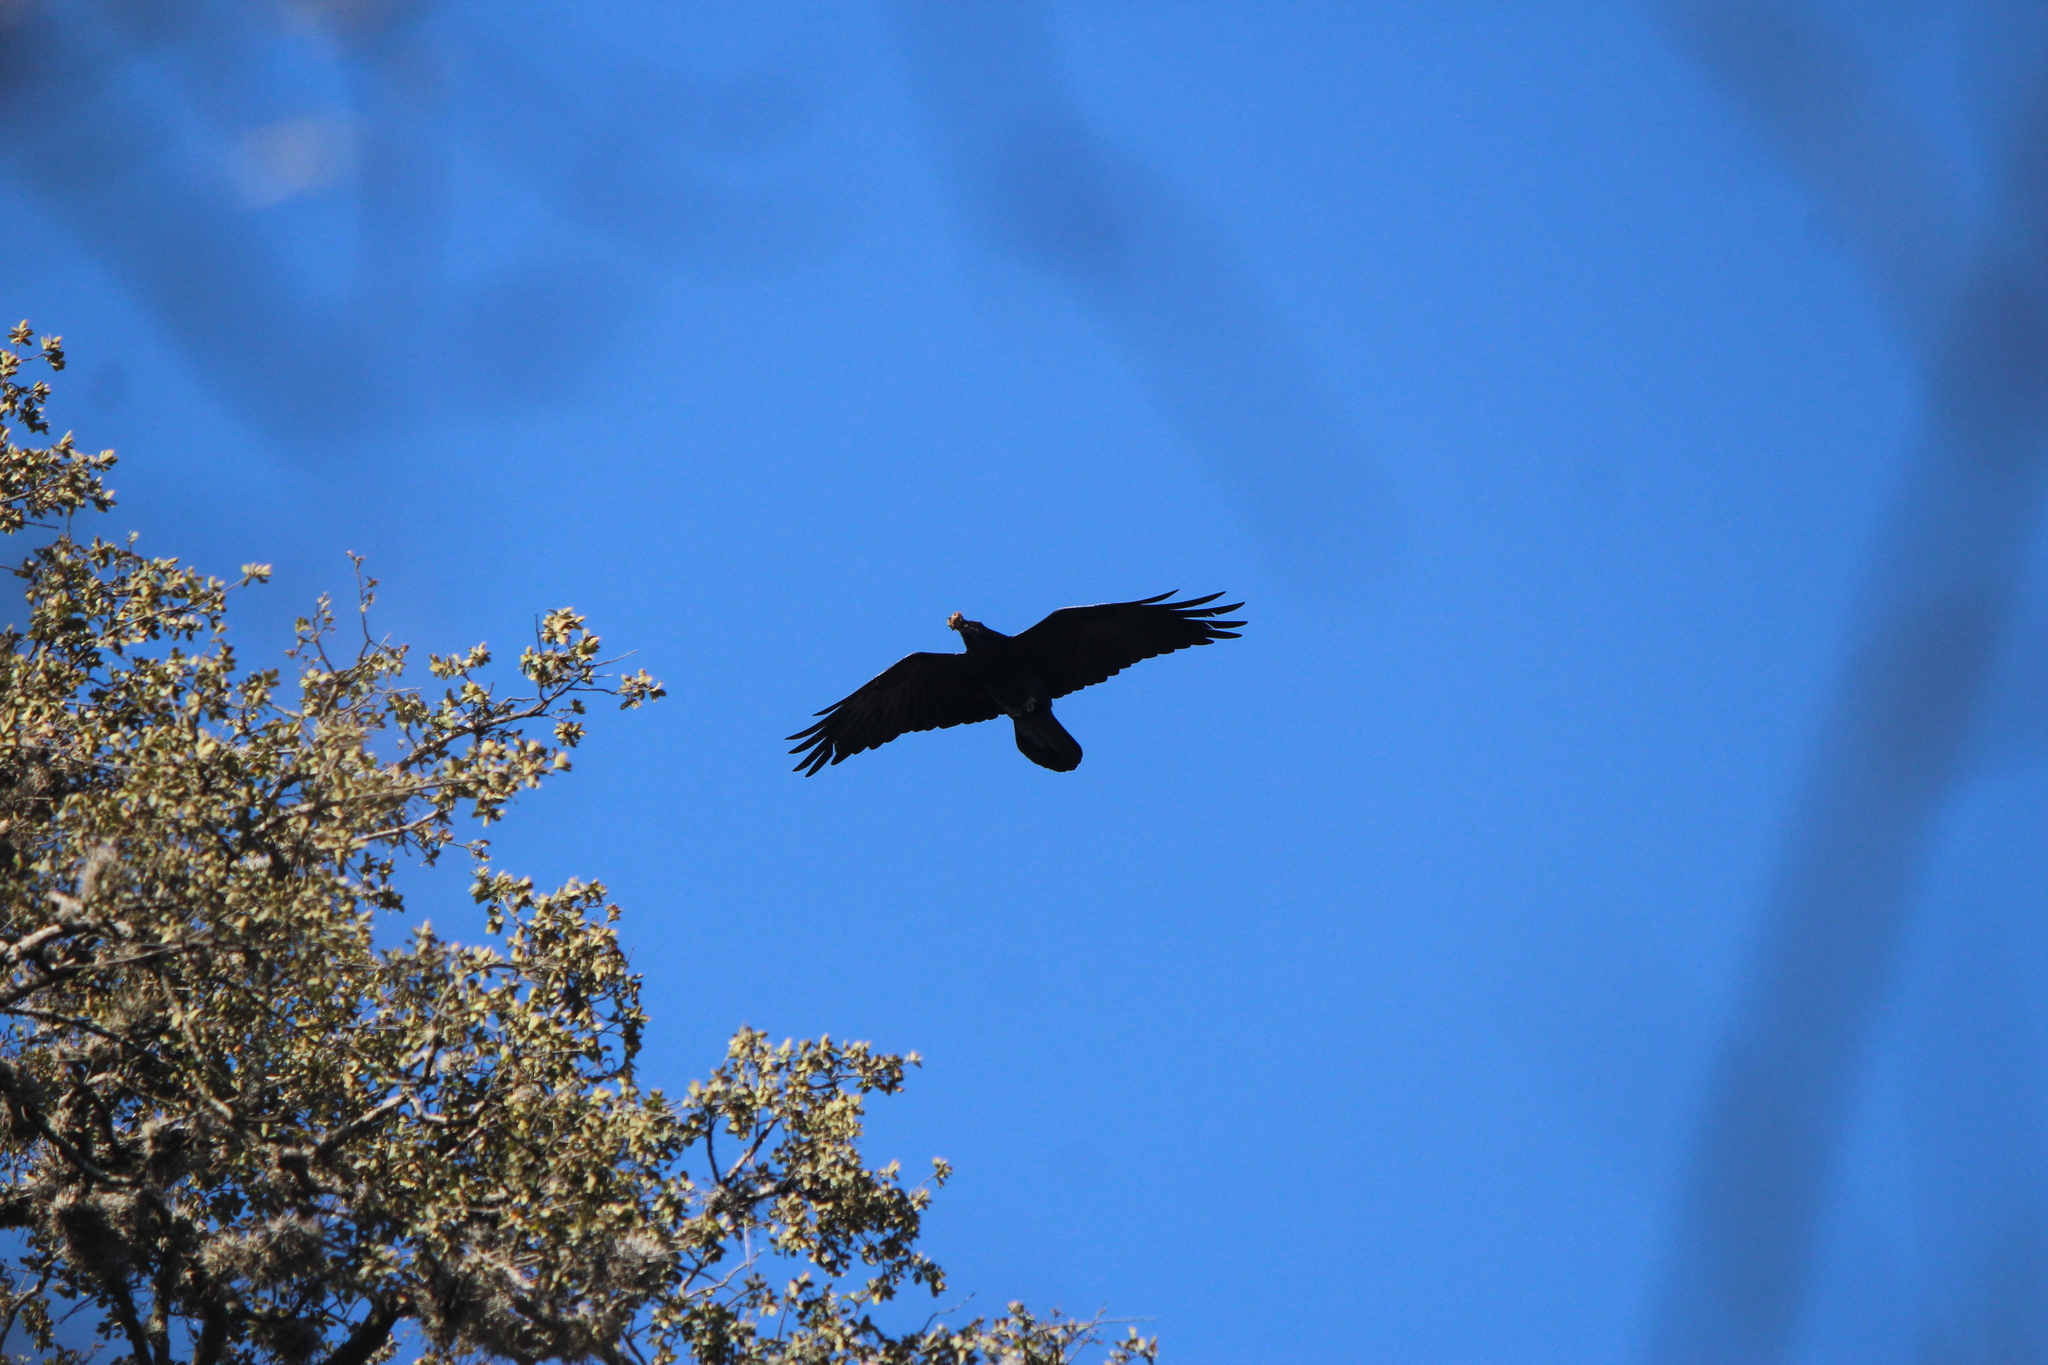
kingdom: Animalia
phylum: Chordata
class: Aves
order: Passeriformes
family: Corvidae
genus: Corvus
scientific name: Corvus corax
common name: Common raven
